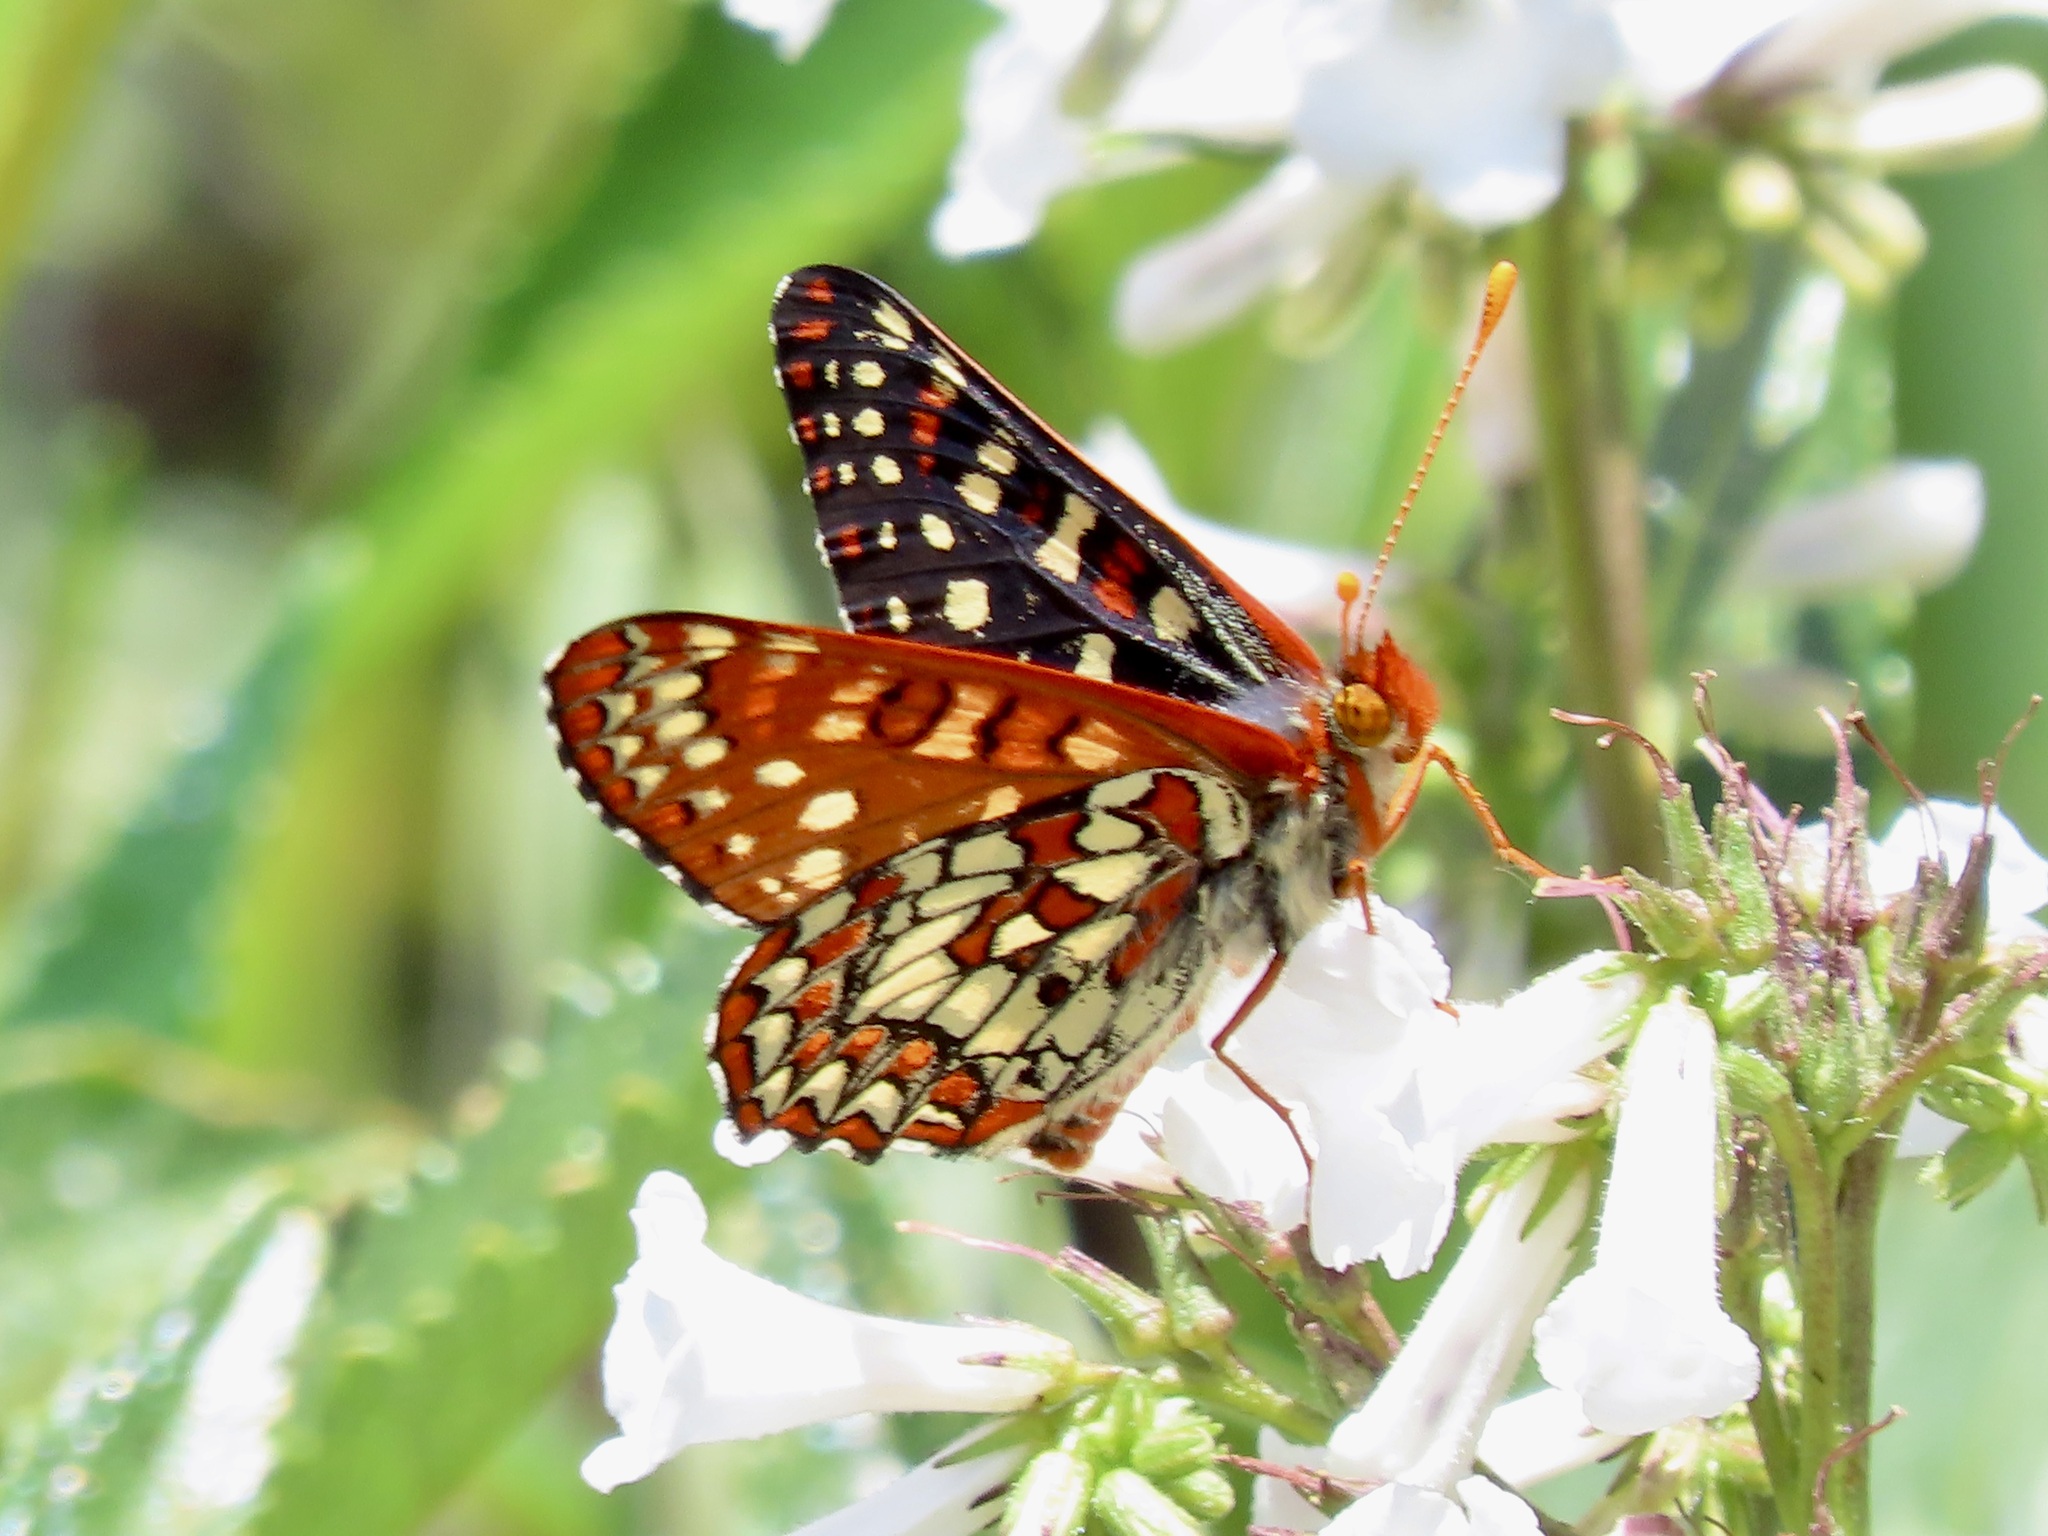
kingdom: Animalia
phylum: Arthropoda
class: Insecta
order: Lepidoptera
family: Nymphalidae
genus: Occidryas
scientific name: Occidryas chalcedona
